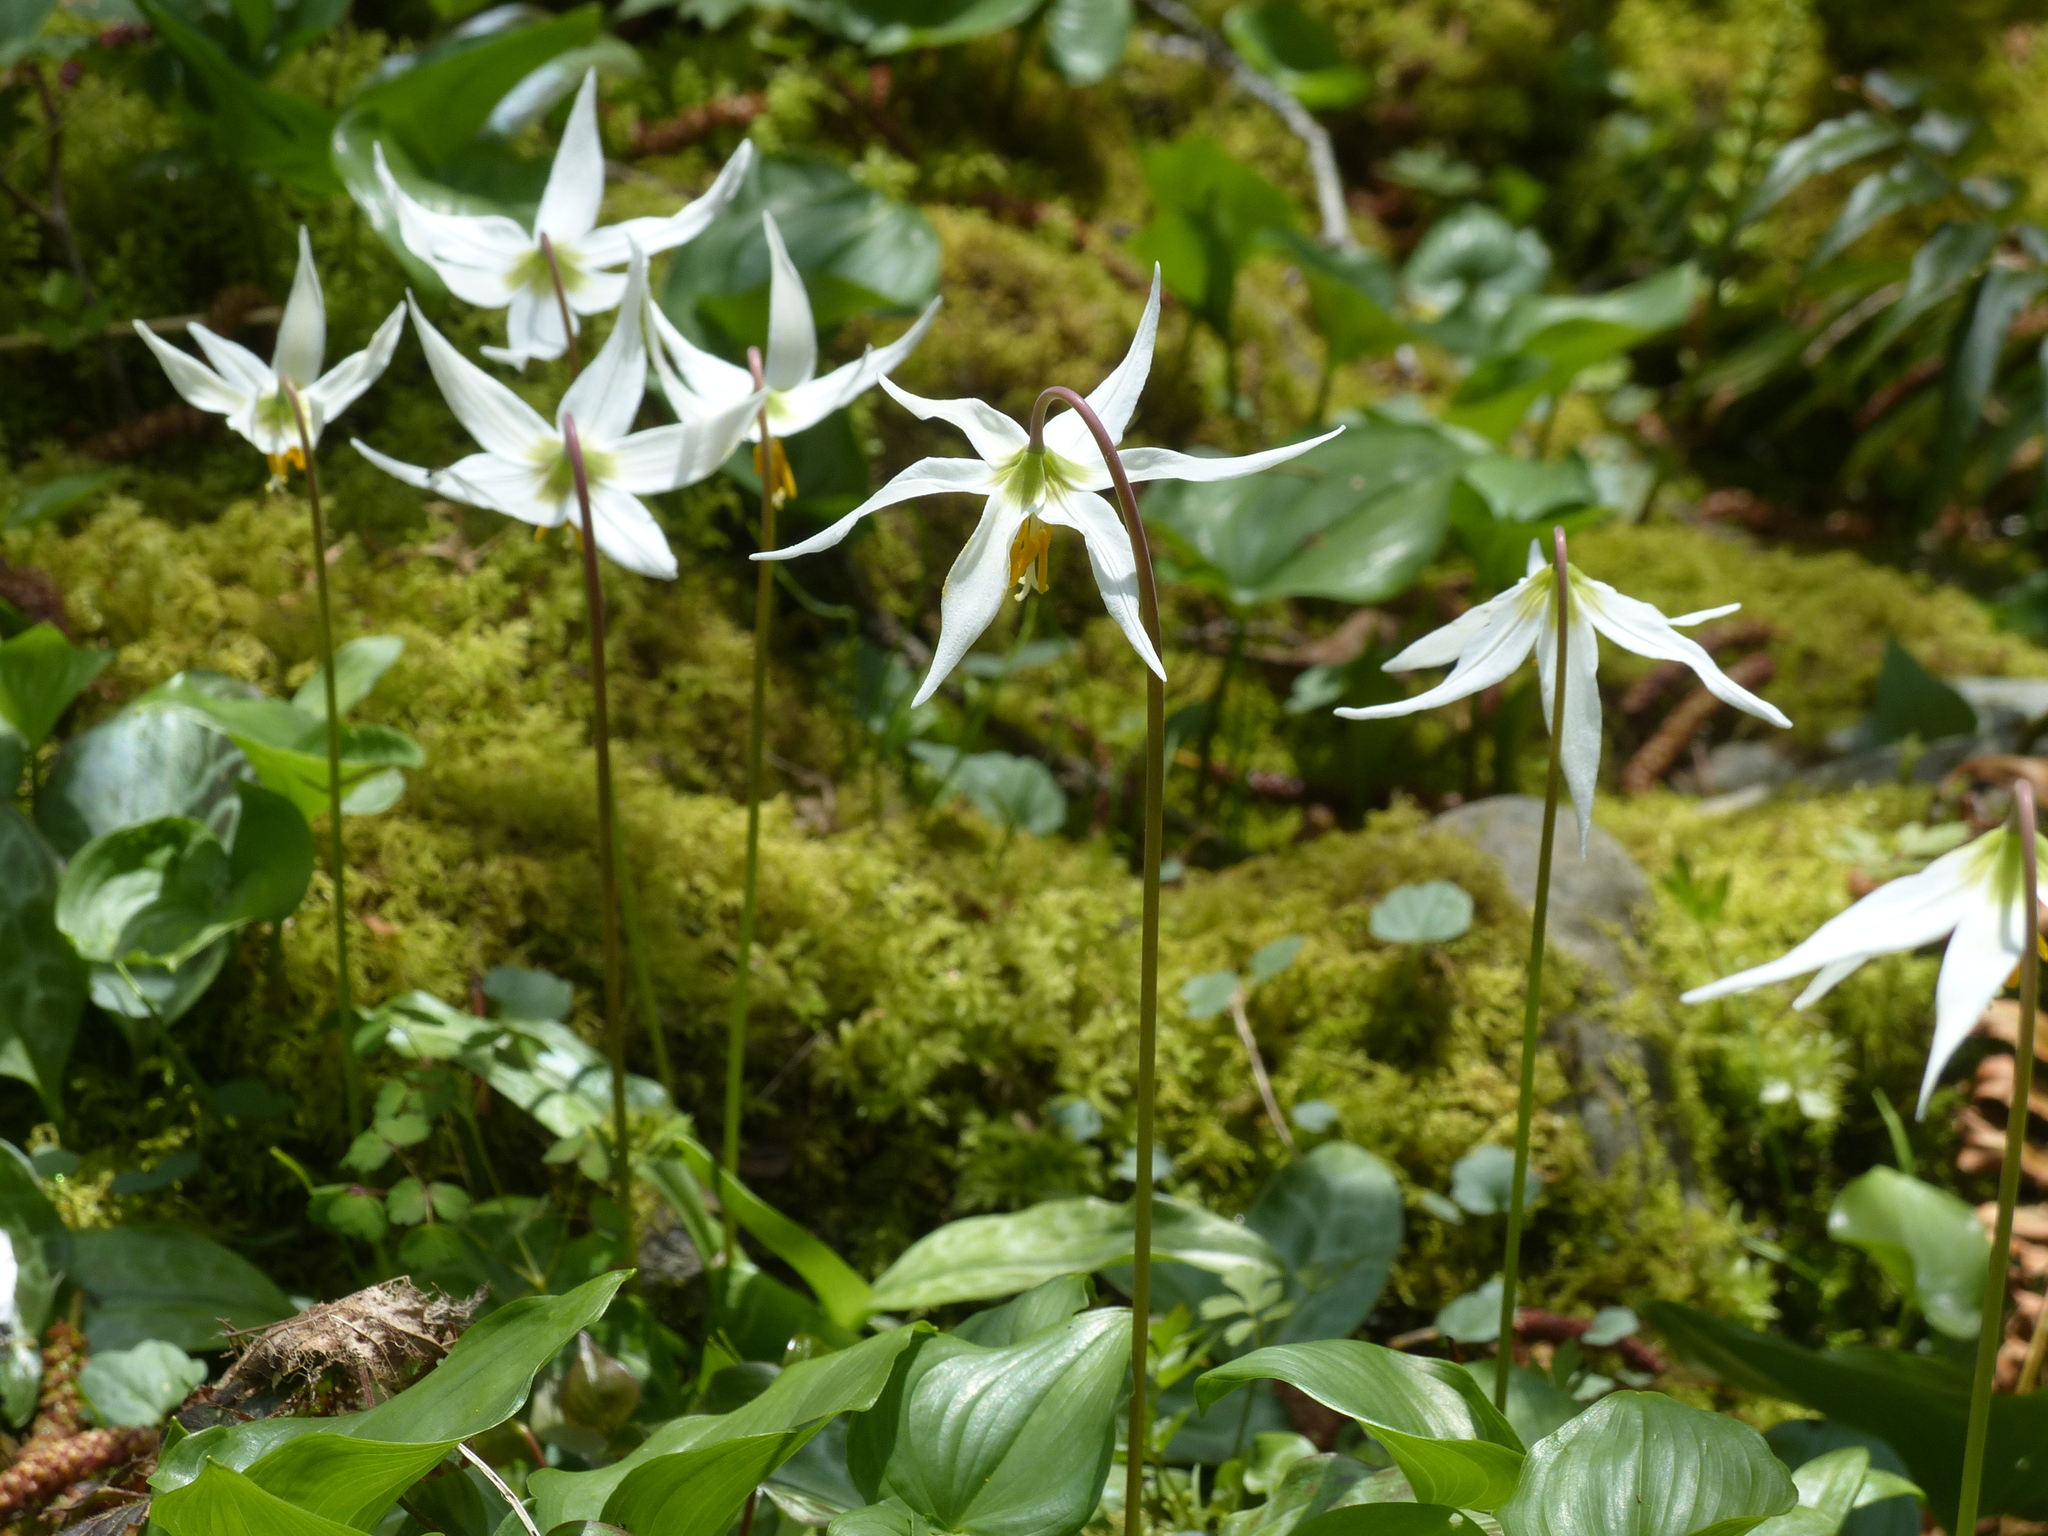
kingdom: Plantae
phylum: Tracheophyta
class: Liliopsida
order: Liliales
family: Liliaceae
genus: Erythronium
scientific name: Erythronium oregonum
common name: Giant adder's-tongue
